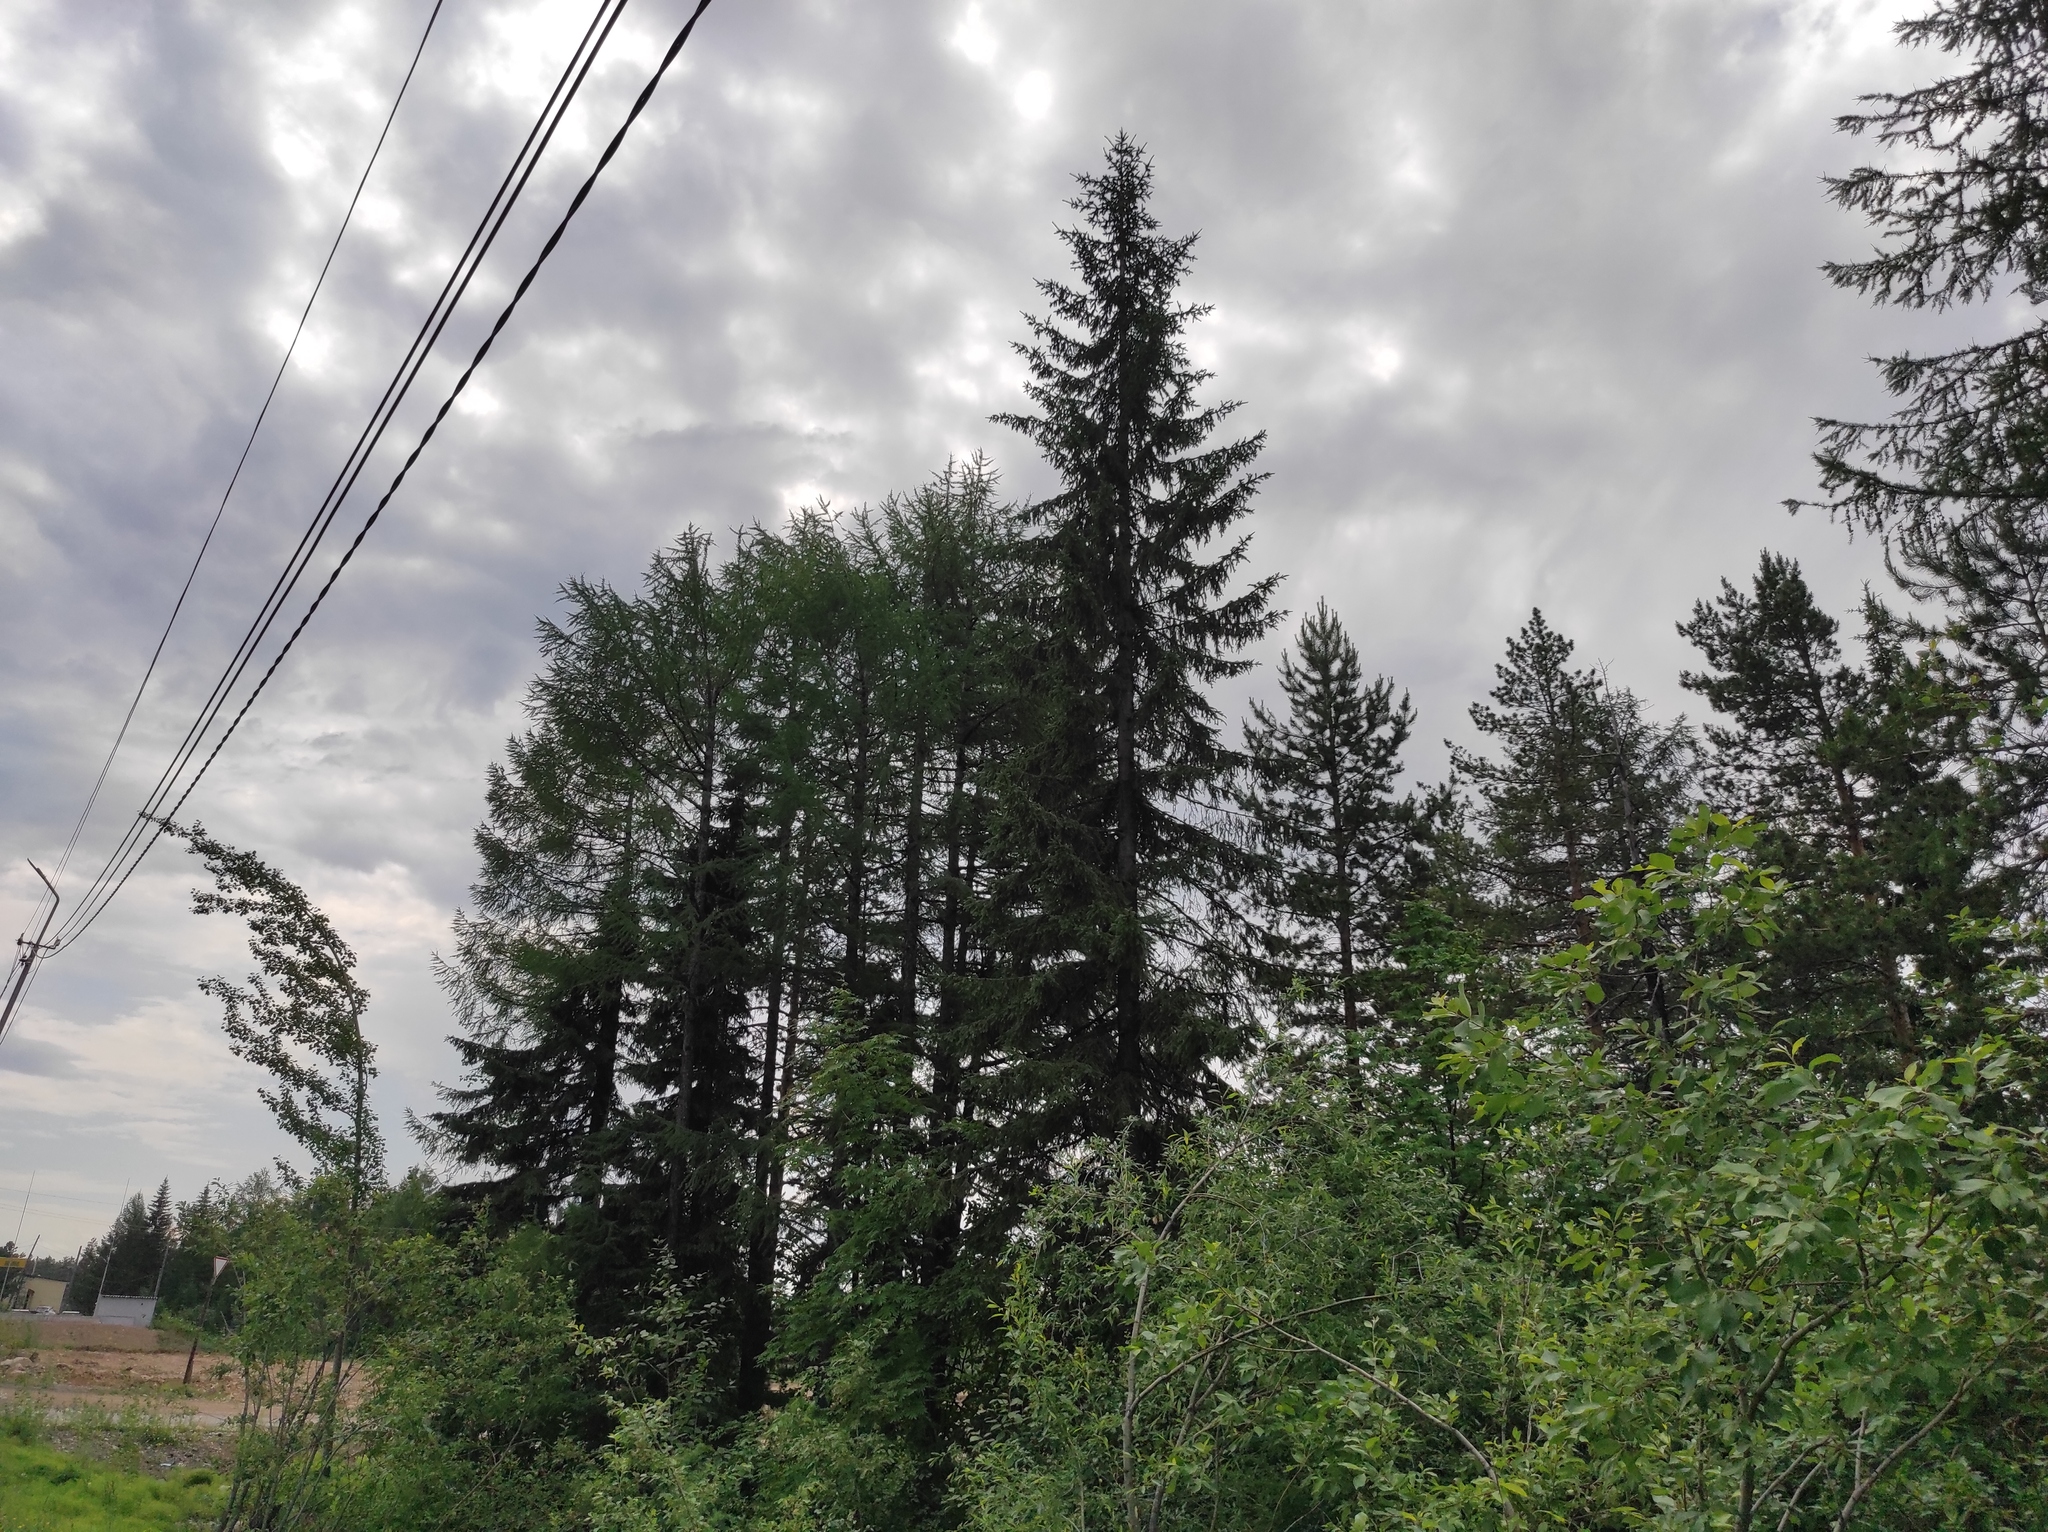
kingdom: Plantae
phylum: Tracheophyta
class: Pinopsida
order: Pinales
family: Pinaceae
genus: Larix
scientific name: Larix gmelinii
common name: Dahurian larch
